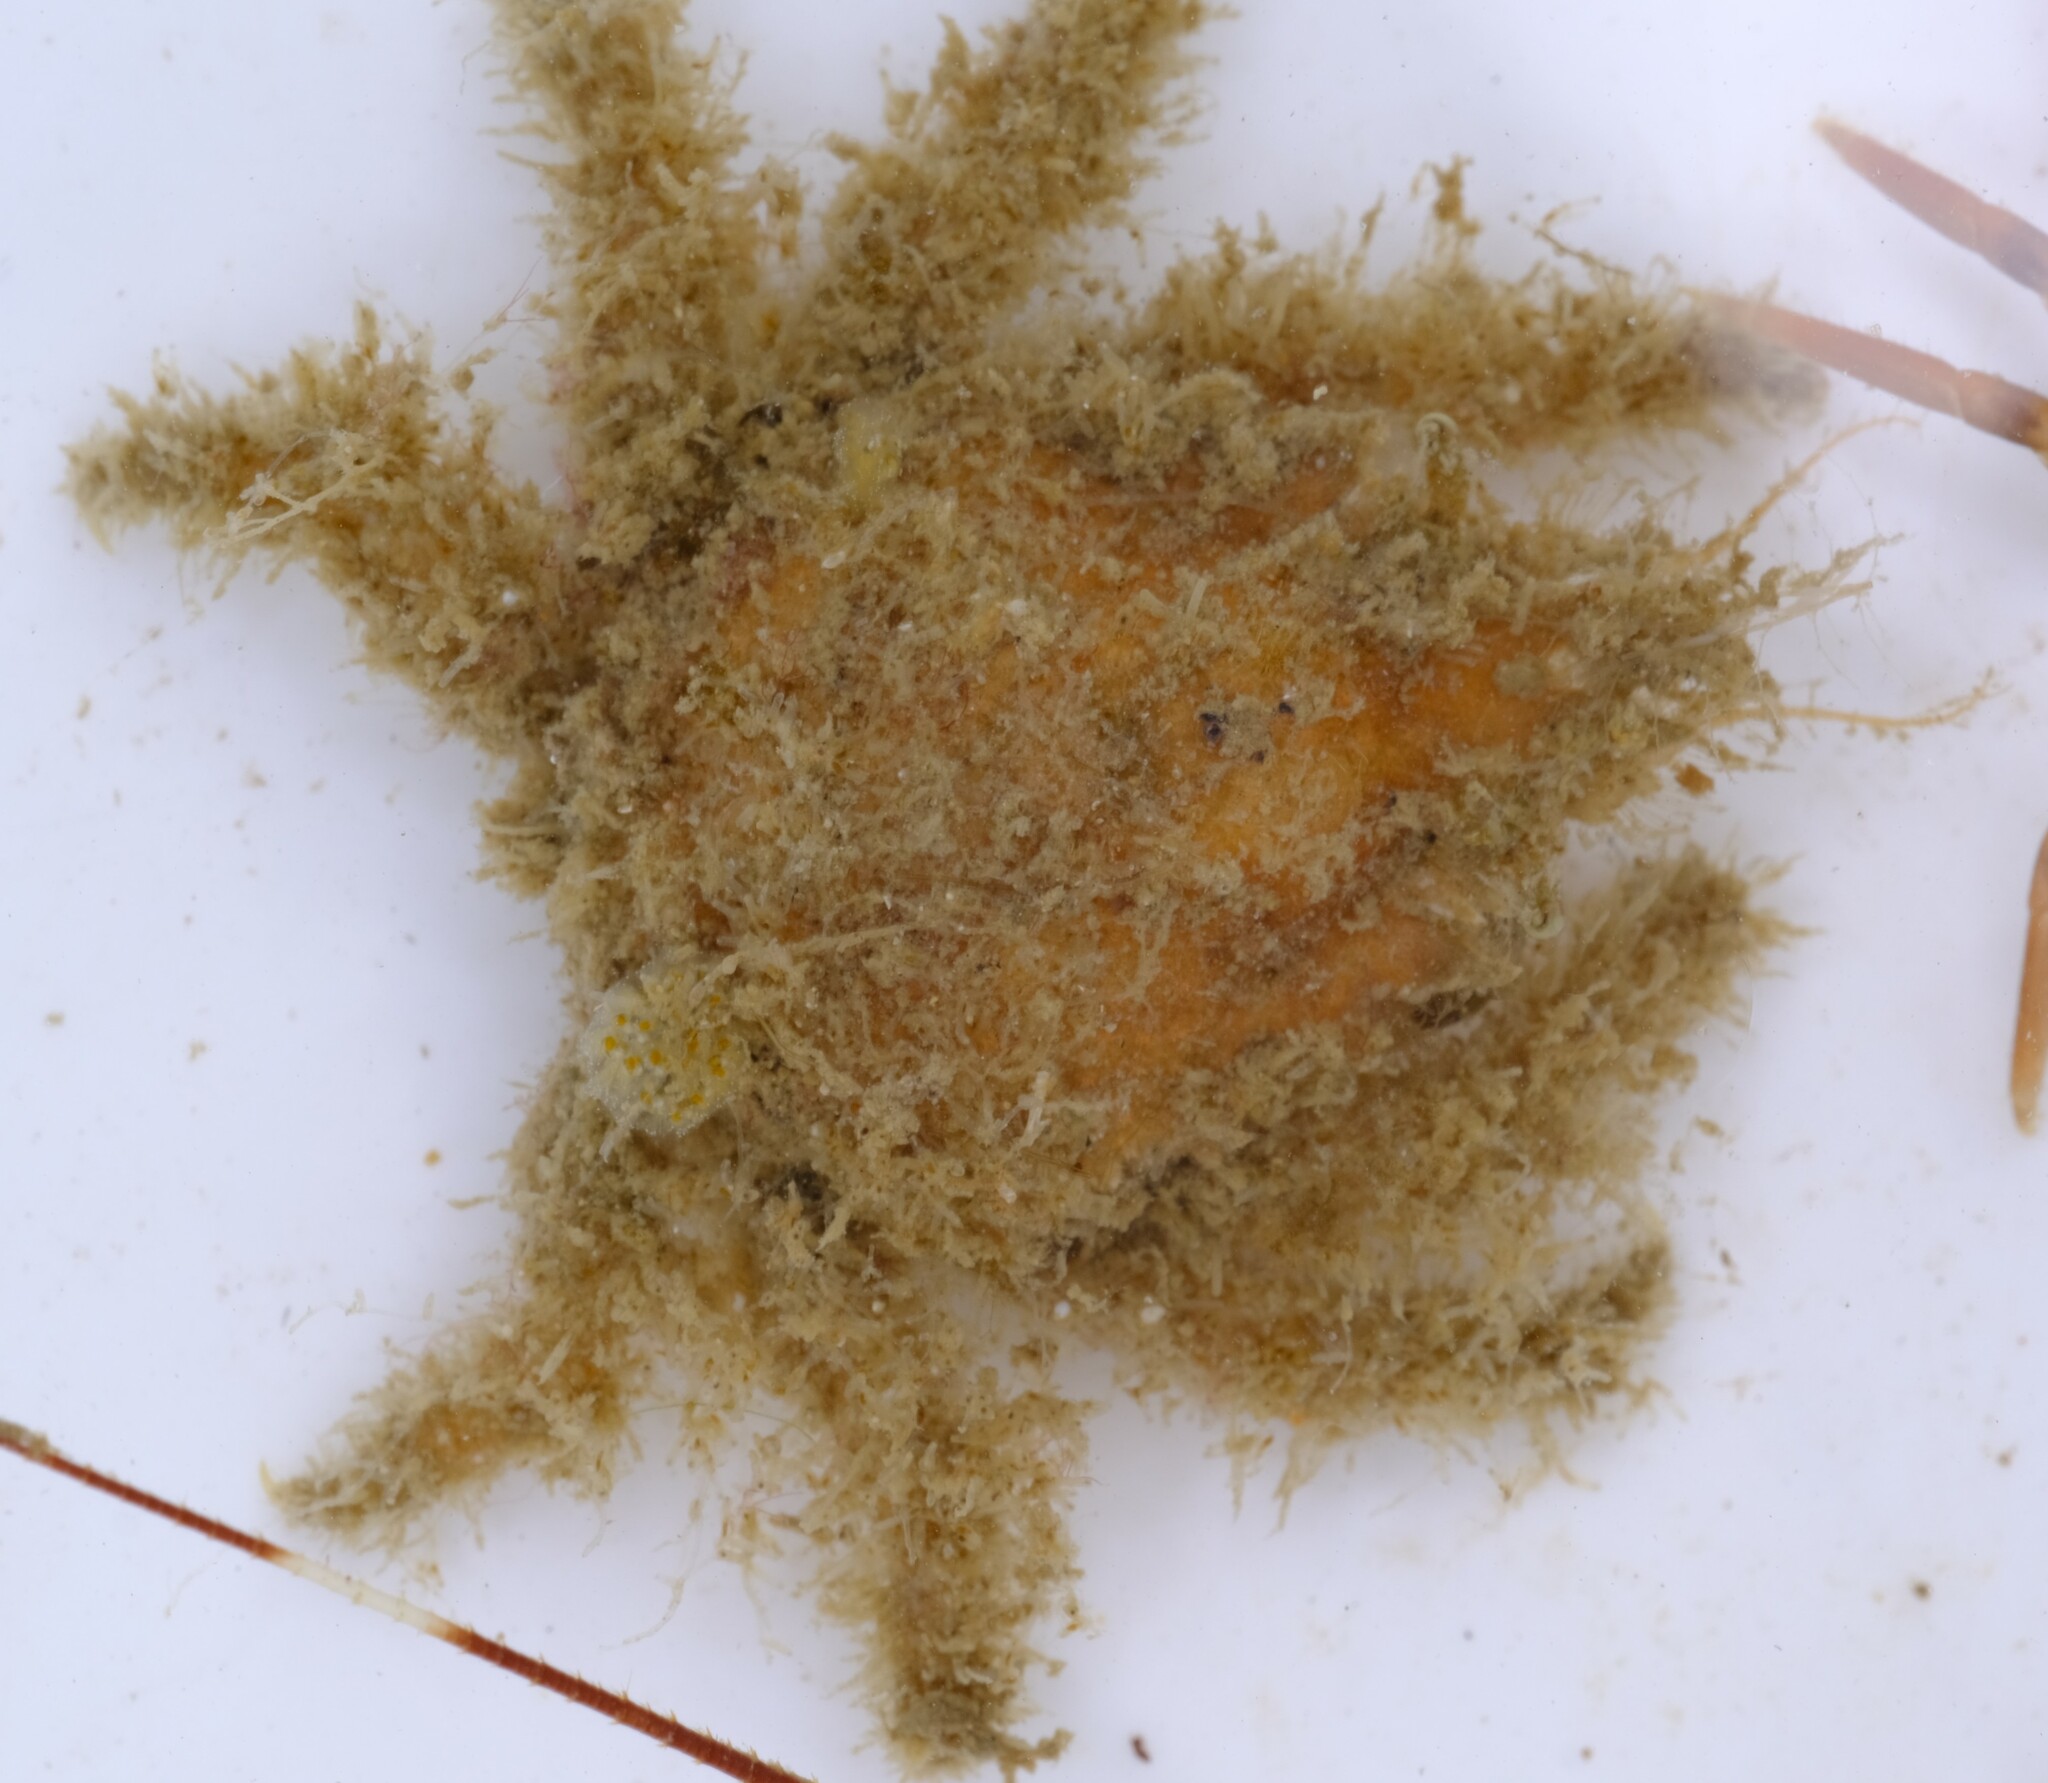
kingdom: Animalia
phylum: Arthropoda
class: Malacostraca
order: Decapoda
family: Majidae
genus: Notomithrax
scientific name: Notomithrax minor
